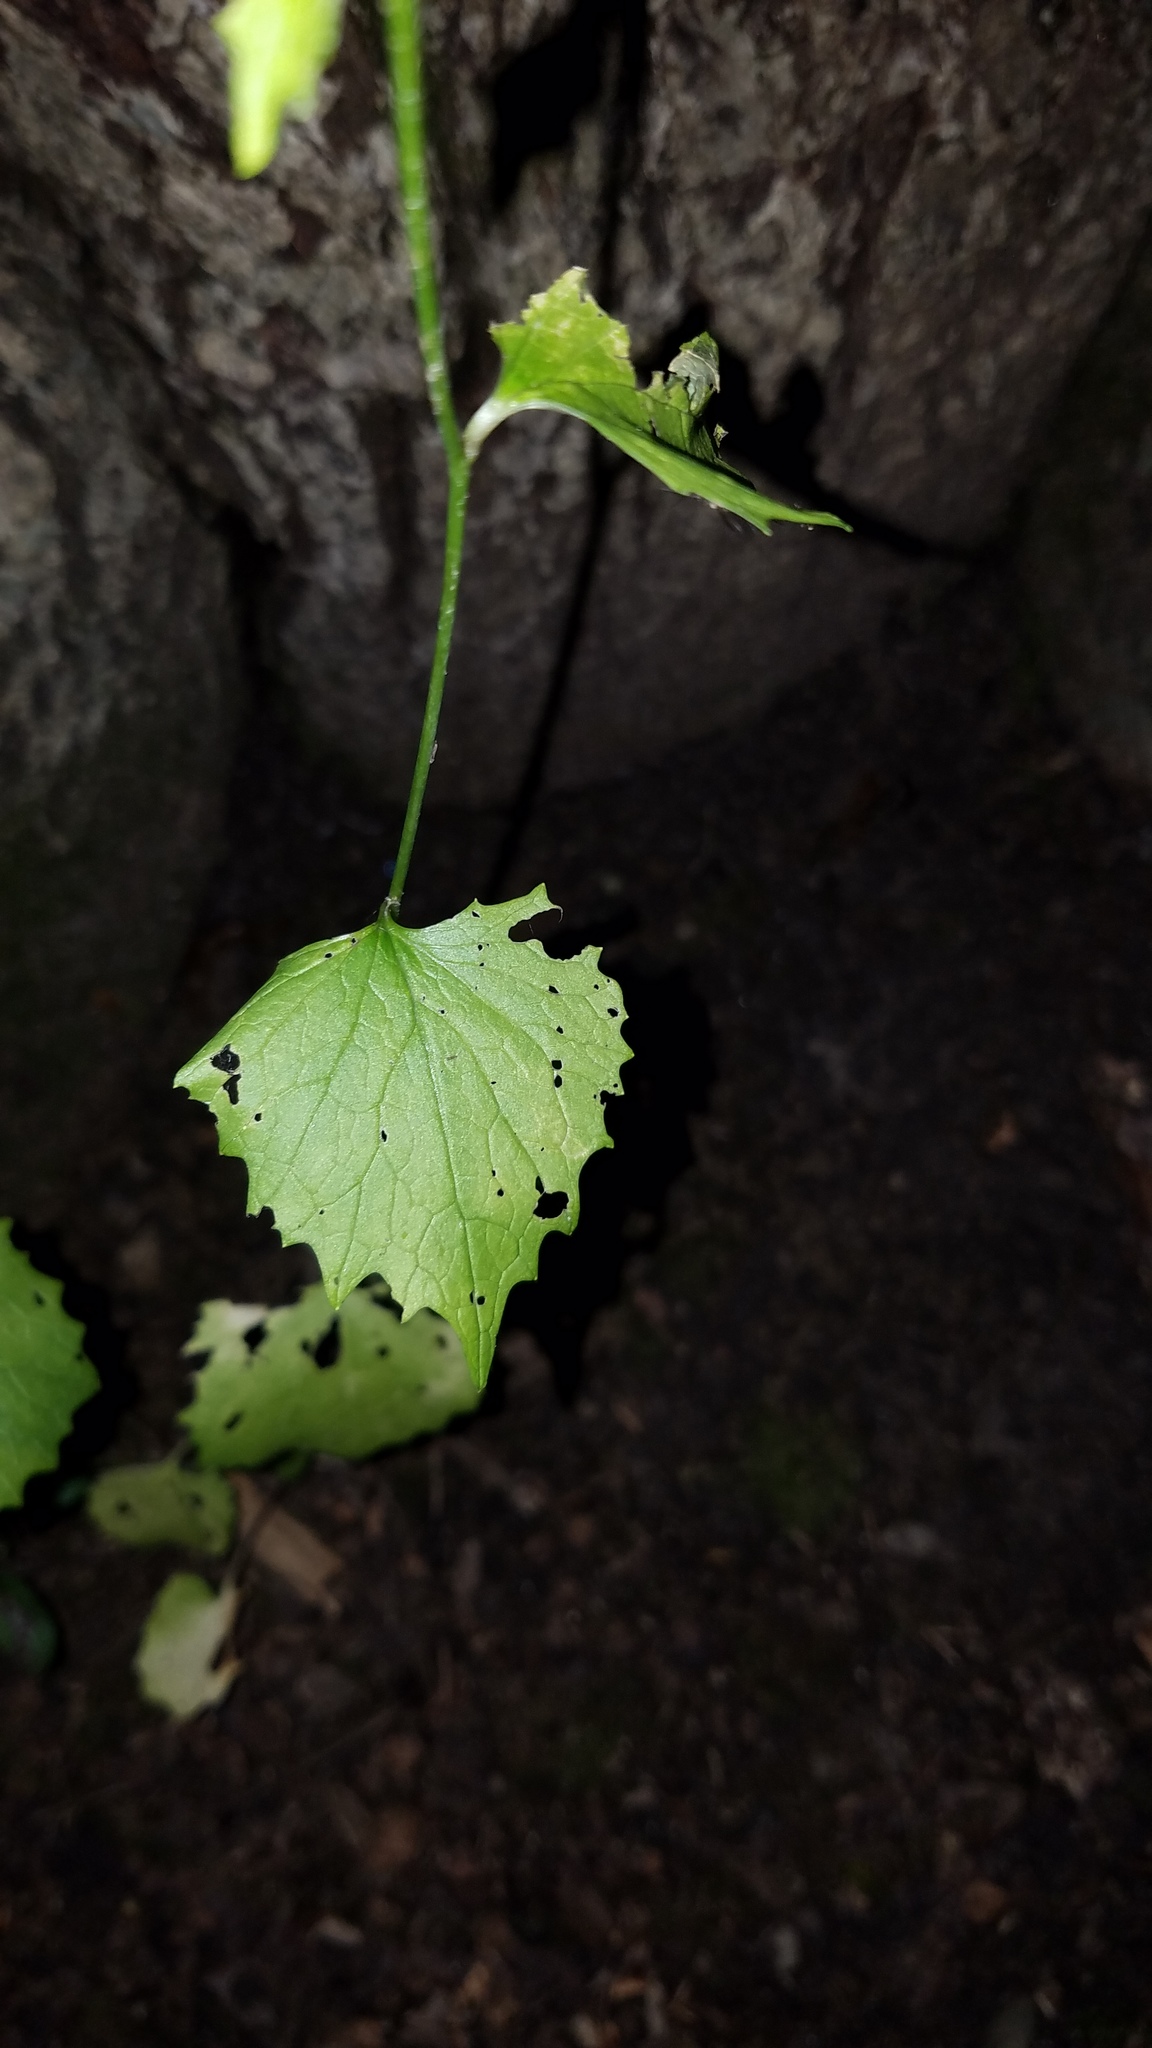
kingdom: Plantae
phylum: Tracheophyta
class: Magnoliopsida
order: Brassicales
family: Brassicaceae
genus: Alliaria
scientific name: Alliaria petiolata
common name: Garlic mustard
